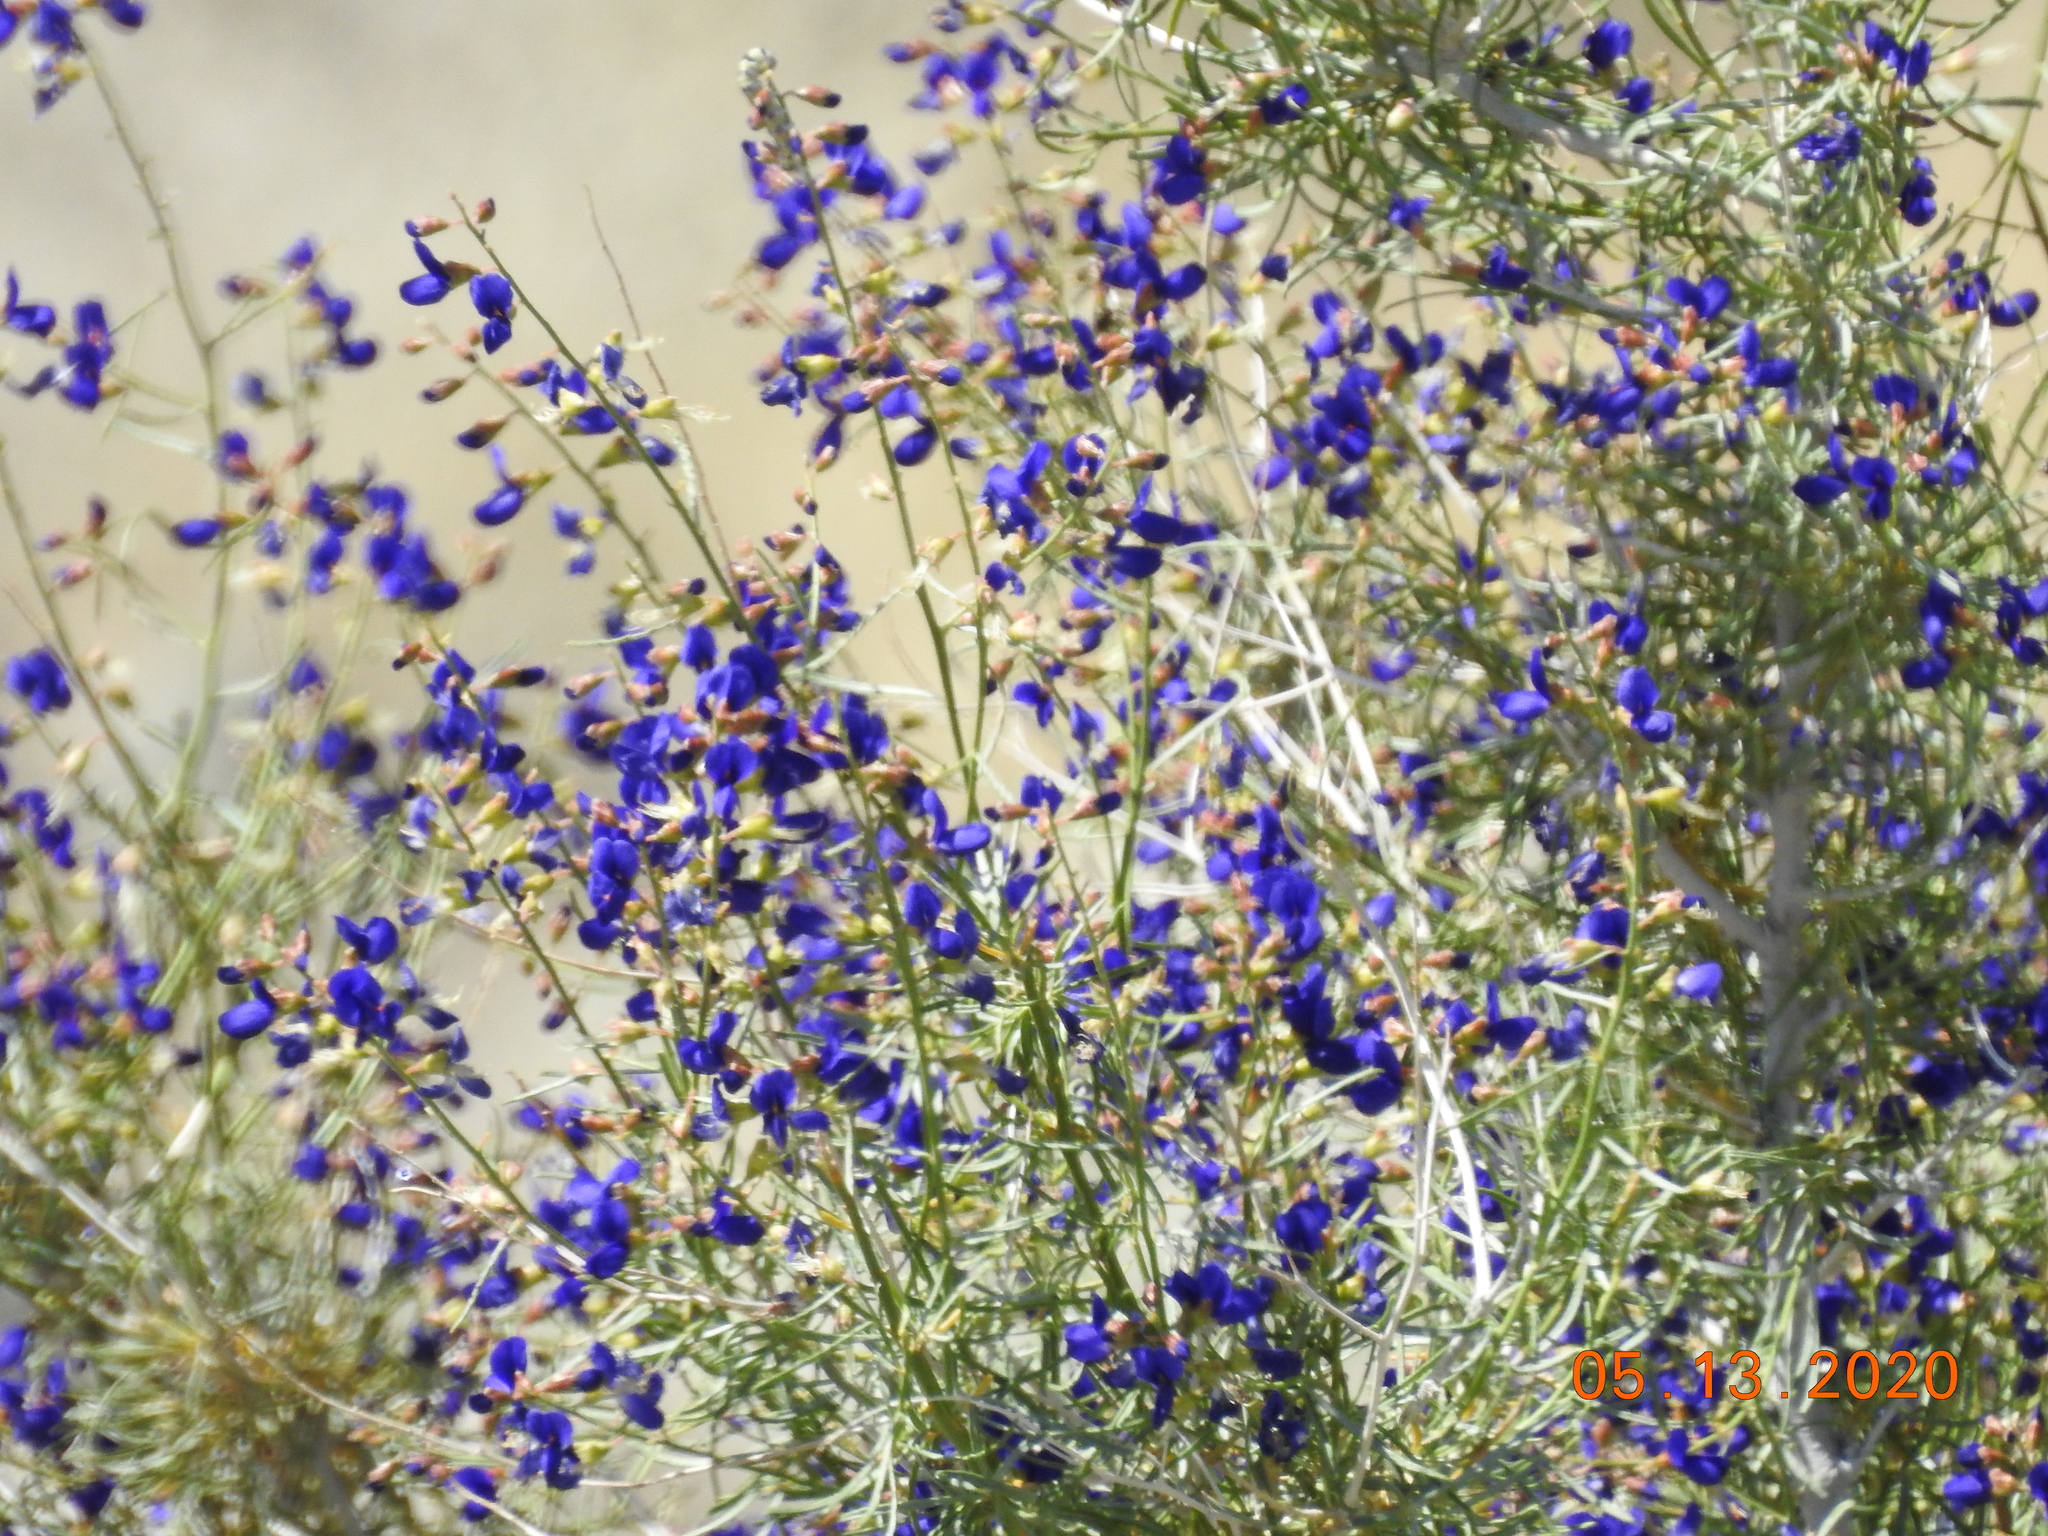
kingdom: Plantae
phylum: Tracheophyta
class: Magnoliopsida
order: Fabales
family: Fabaceae
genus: Psorothamnus
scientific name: Psorothamnus schottii
